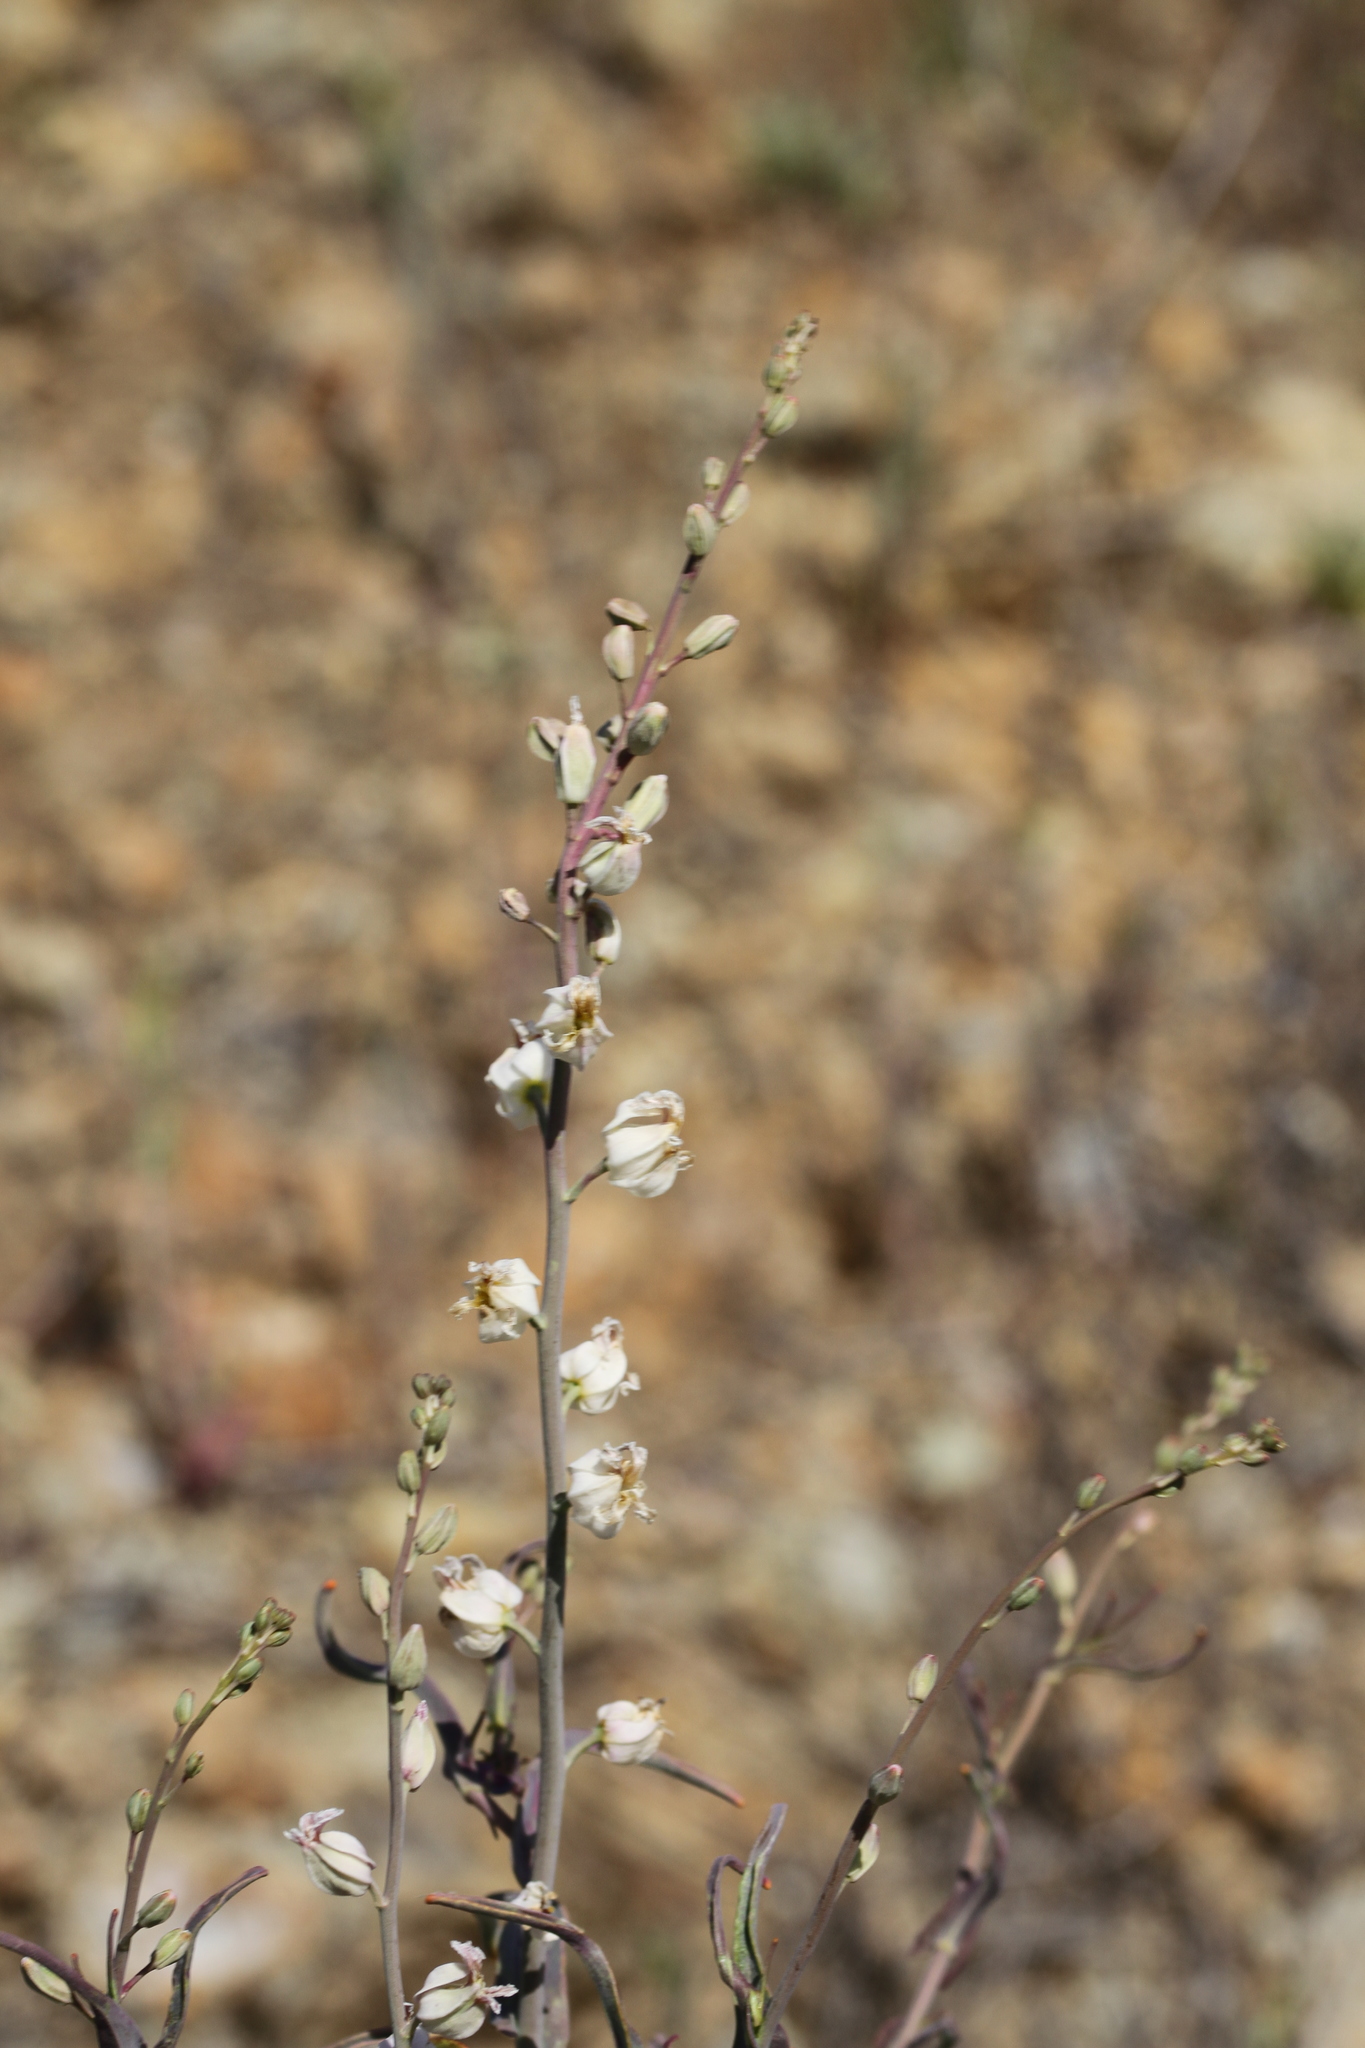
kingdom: Plantae
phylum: Tracheophyta
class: Magnoliopsida
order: Brassicales
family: Brassicaceae
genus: Streptanthus
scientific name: Streptanthus glandulosus
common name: Jewel-flower
